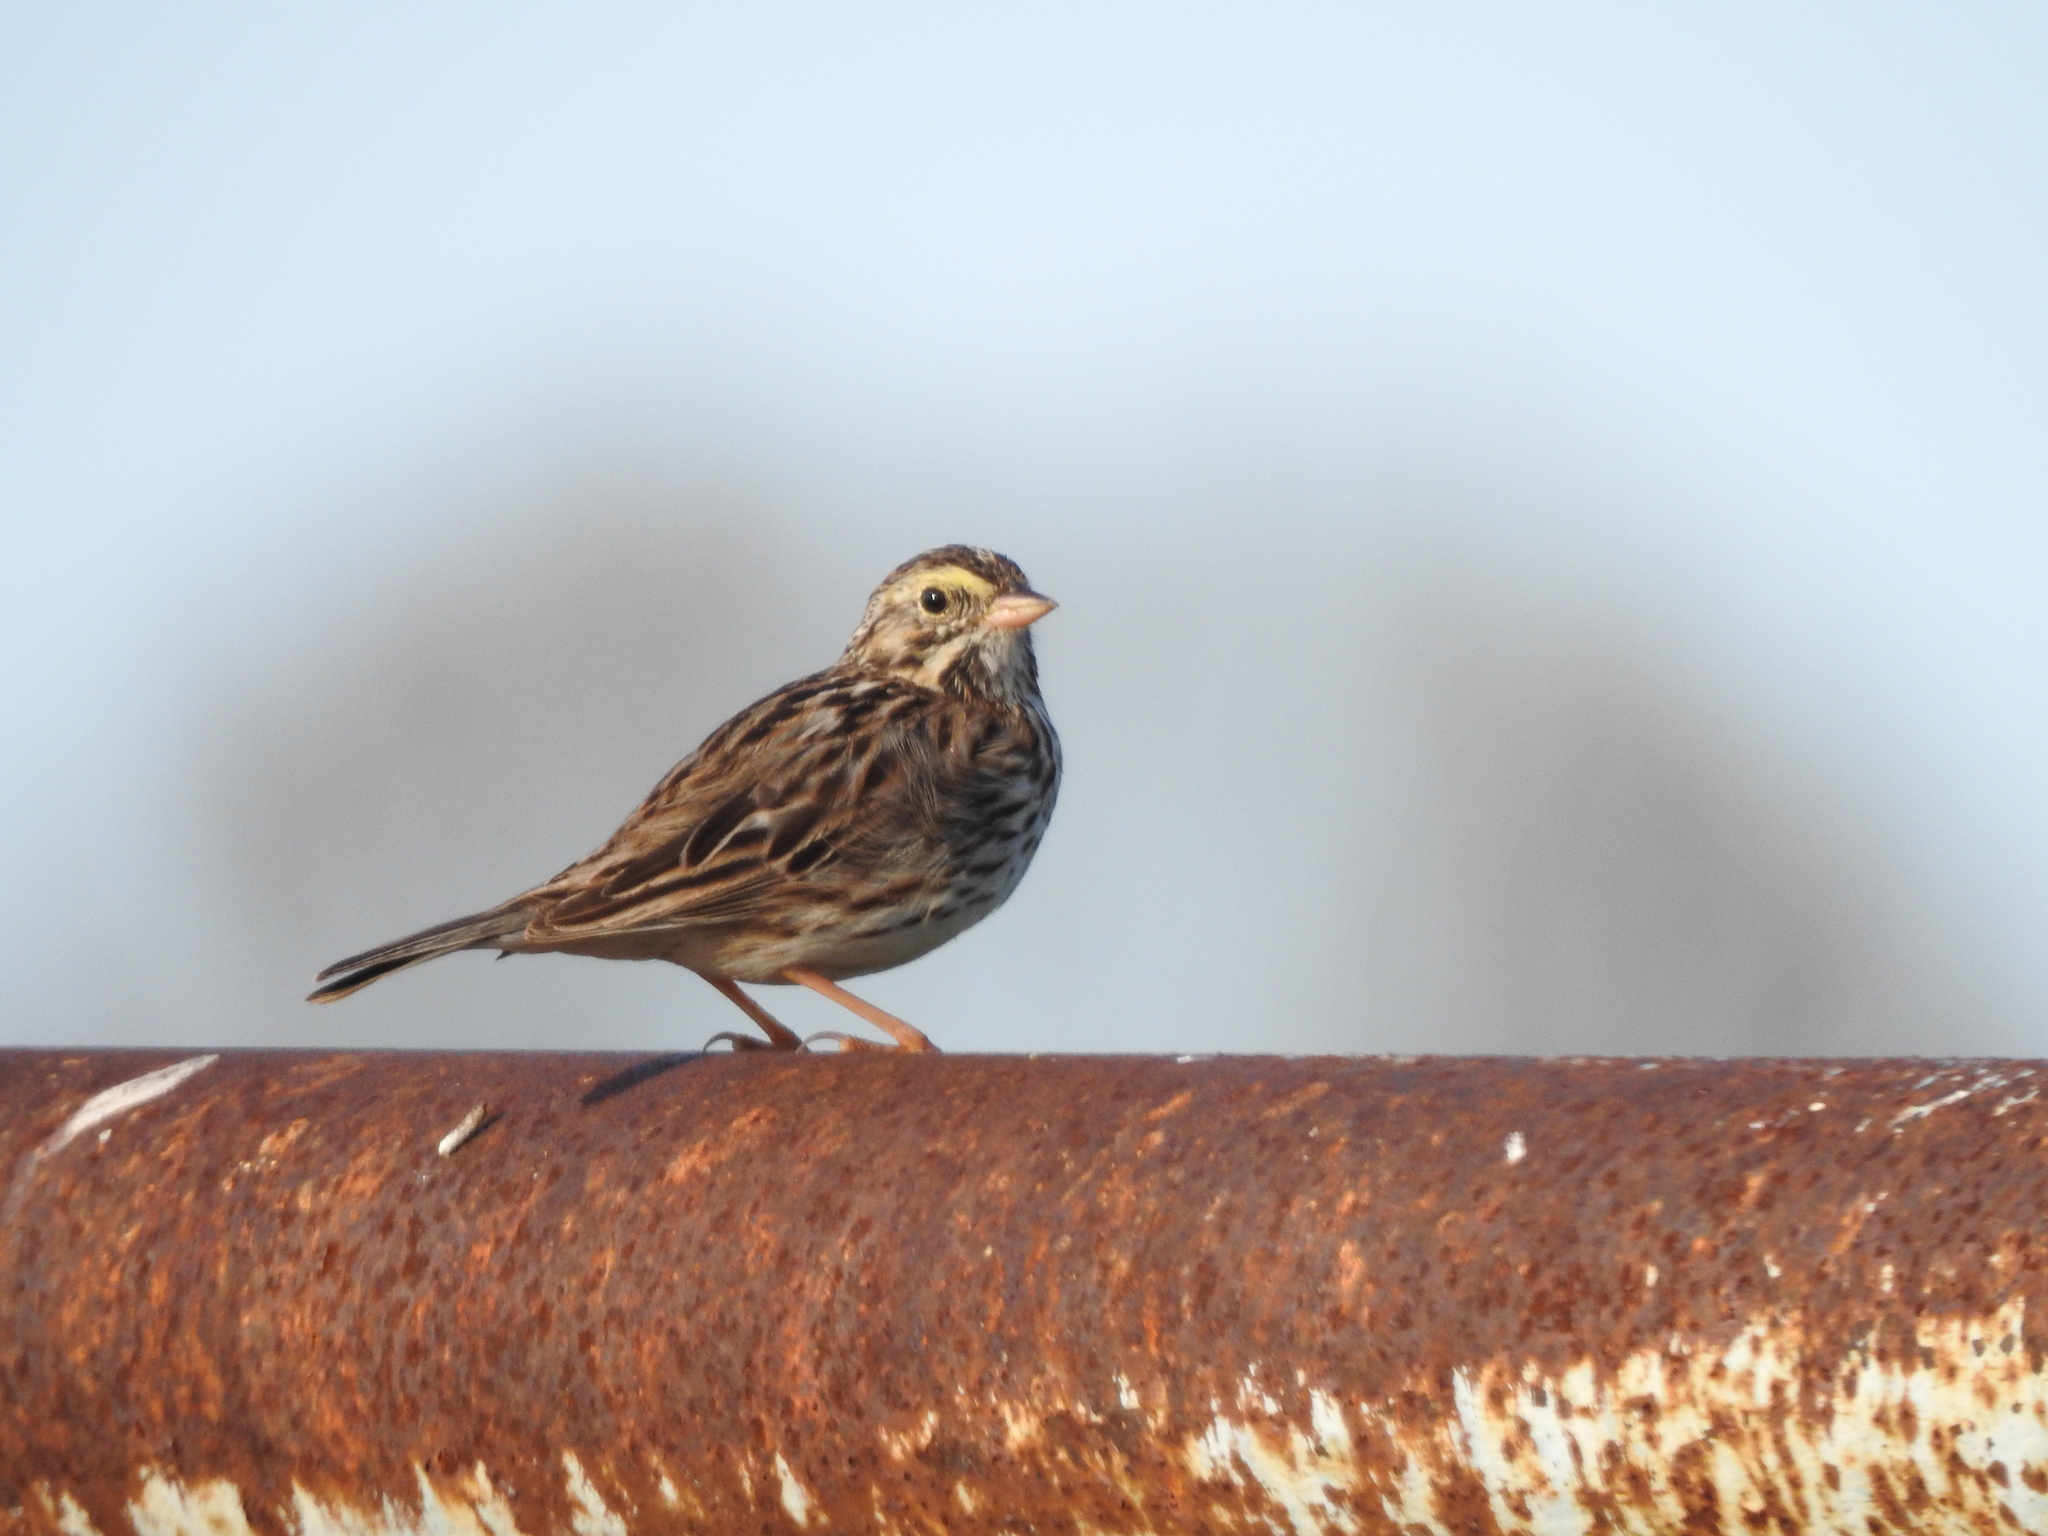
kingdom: Animalia
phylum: Chordata
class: Aves
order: Passeriformes
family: Passerellidae
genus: Passerculus
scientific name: Passerculus sandwichensis
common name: Savannah sparrow
